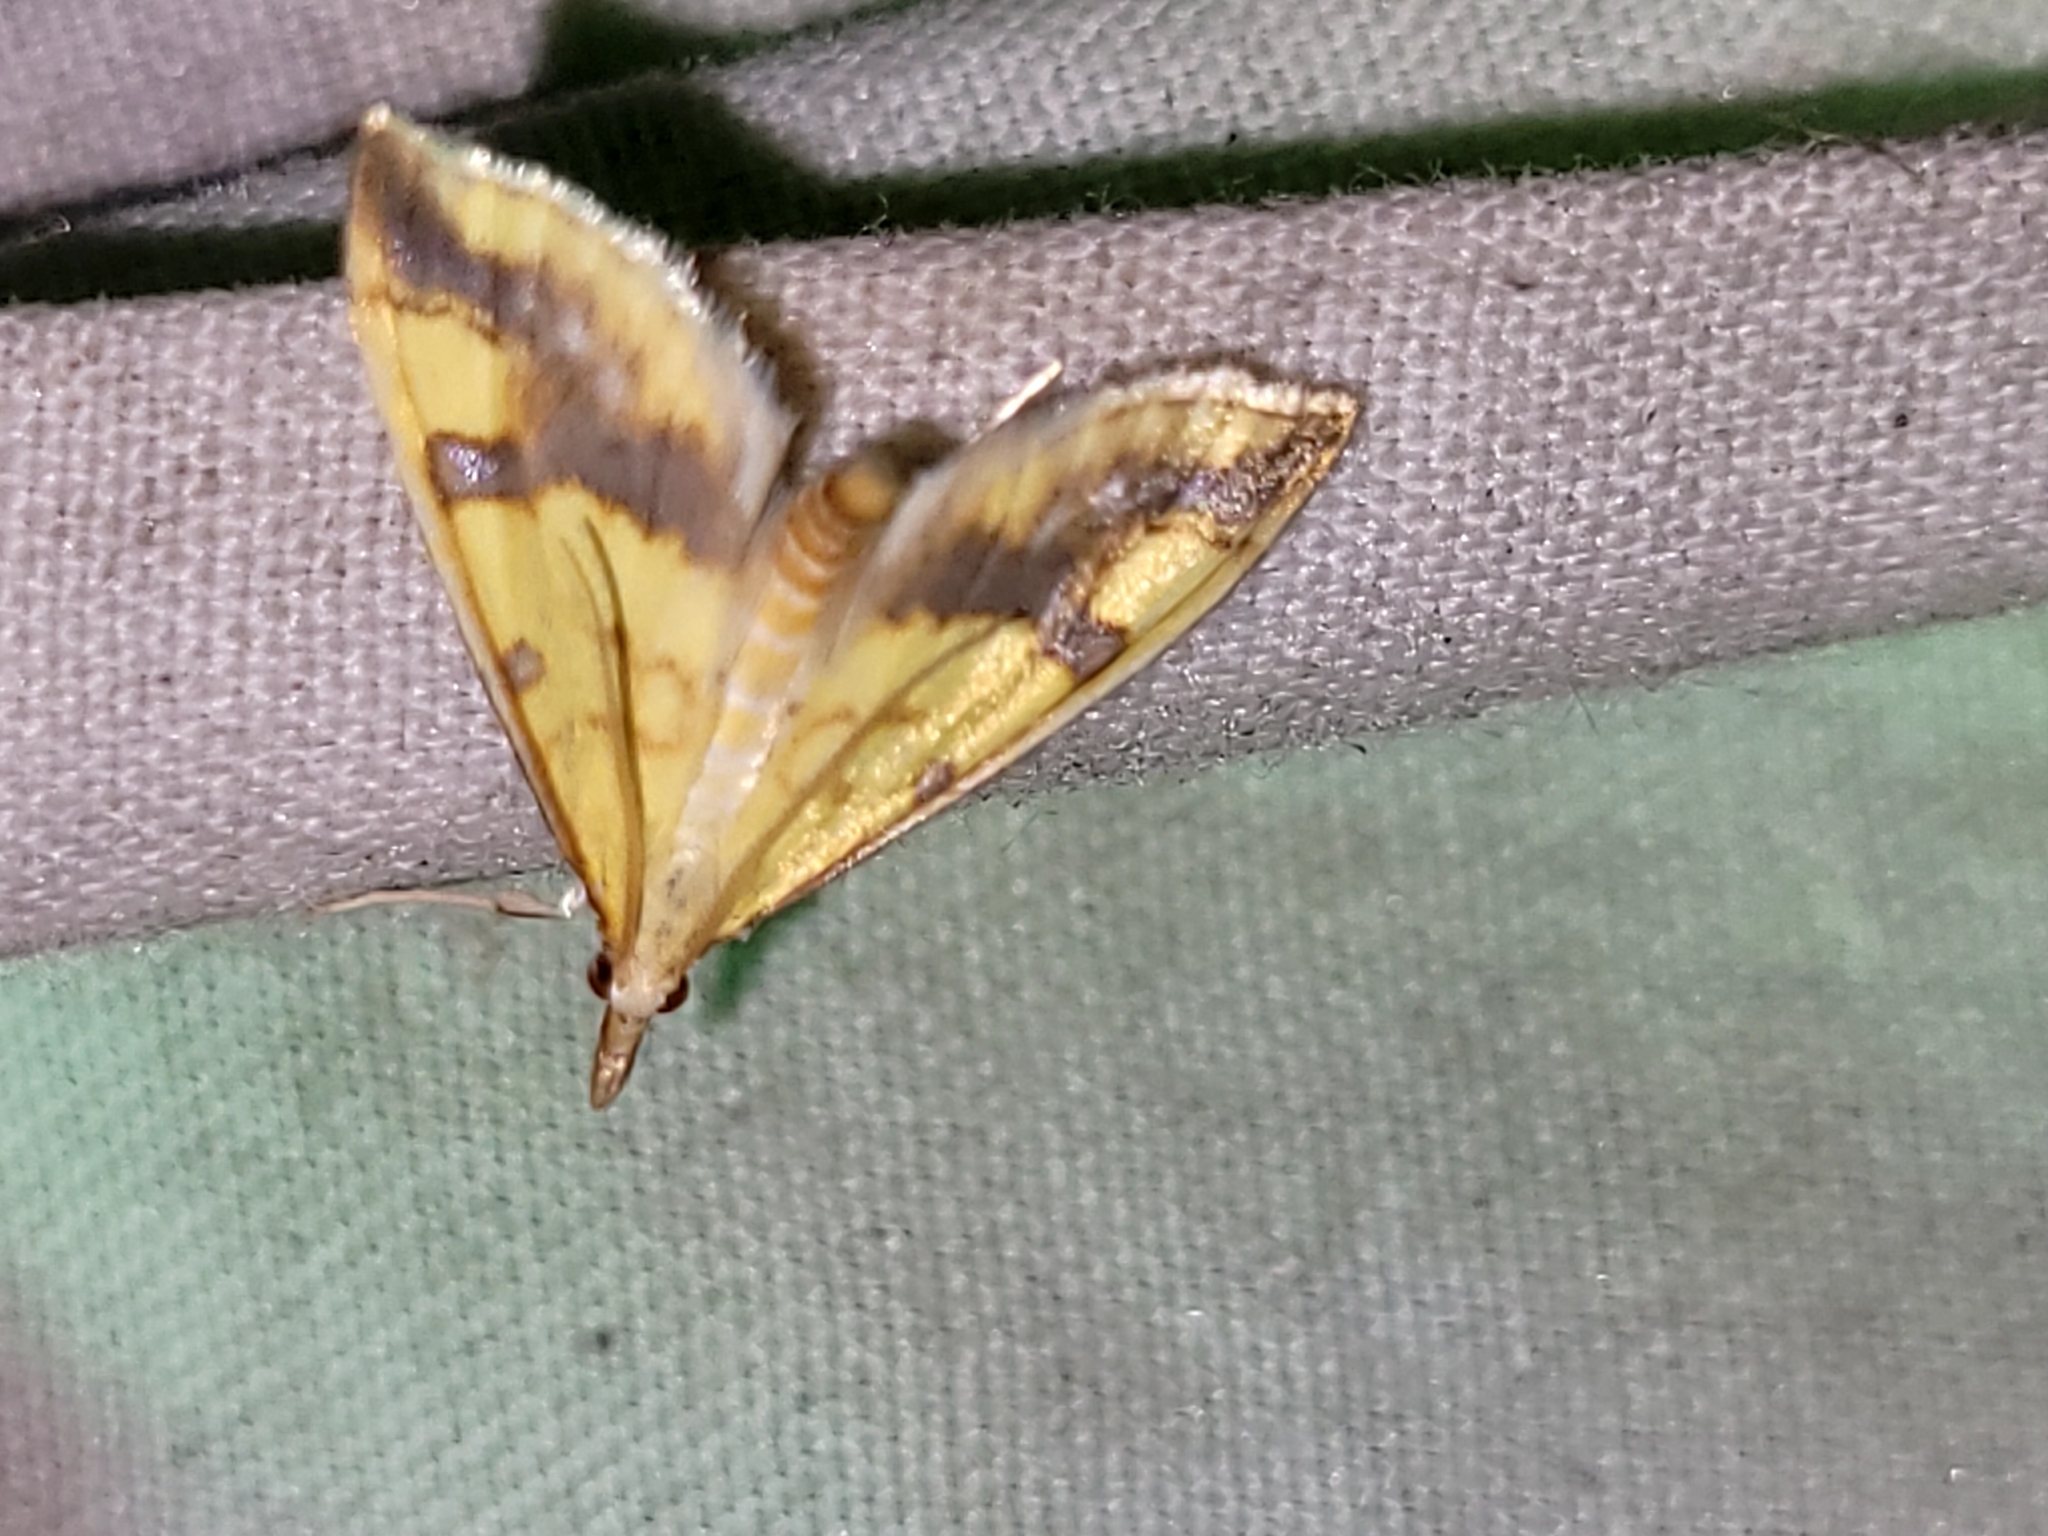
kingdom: Animalia
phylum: Arthropoda
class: Insecta
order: Lepidoptera
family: Crambidae
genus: Choristostigma
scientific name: Choristostigma plumbosignalis
